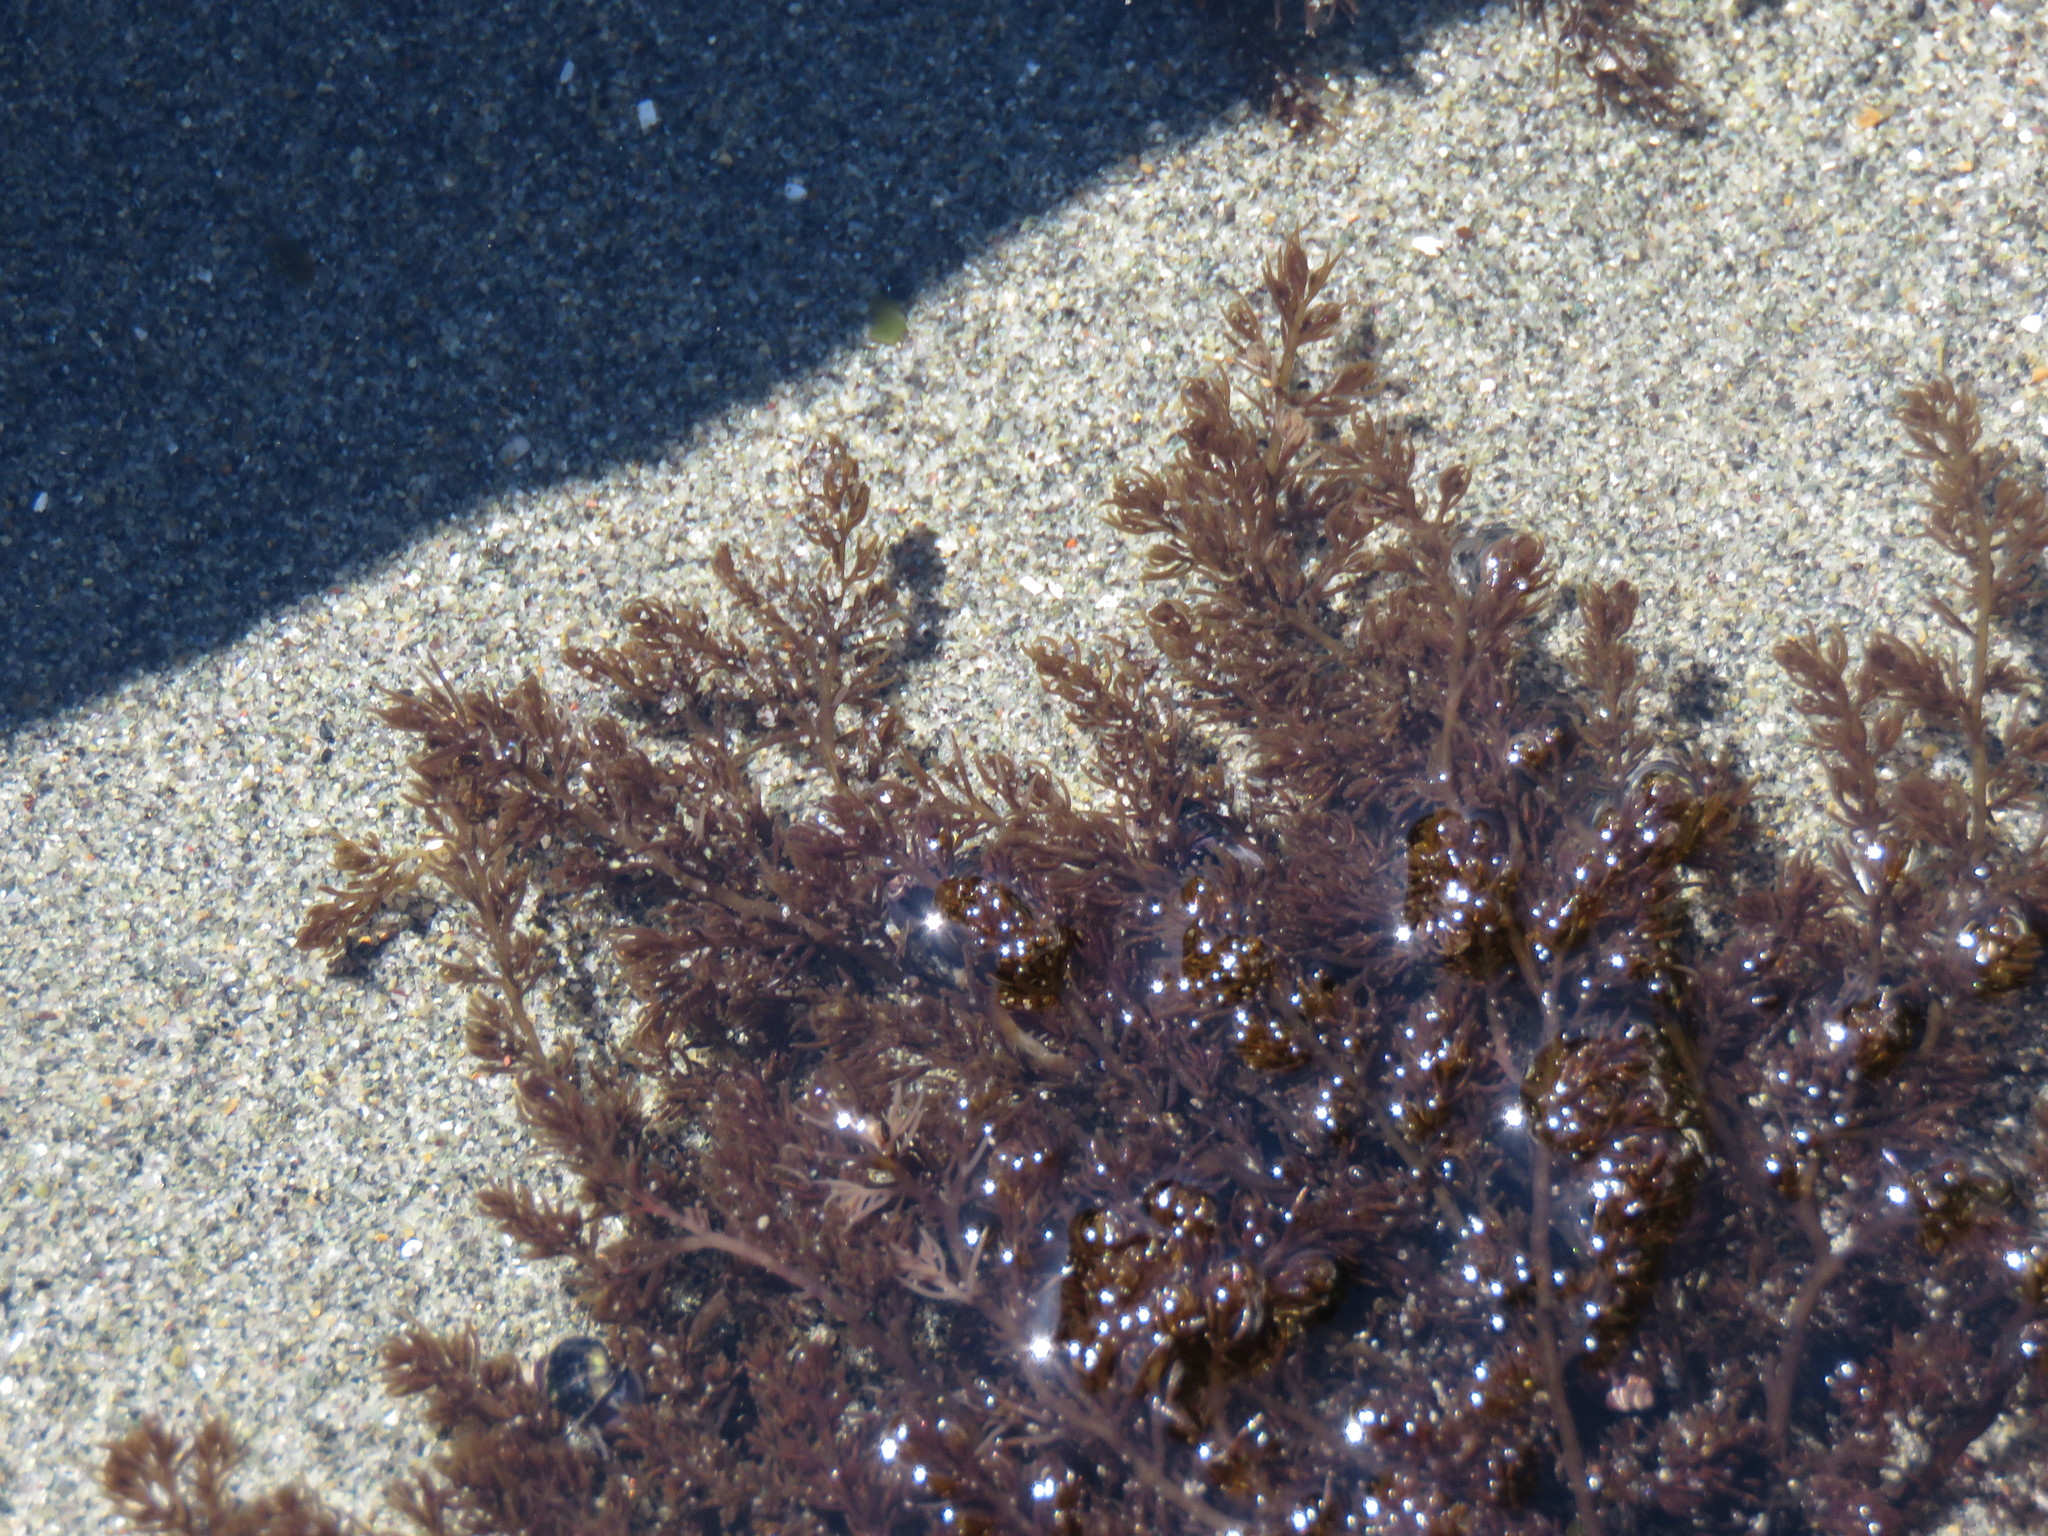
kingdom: Plantae
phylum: Rhodophyta
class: Florideophyceae
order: Ceramiales
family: Rhodomelaceae
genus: Odonthalia
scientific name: Odonthalia floccosa
